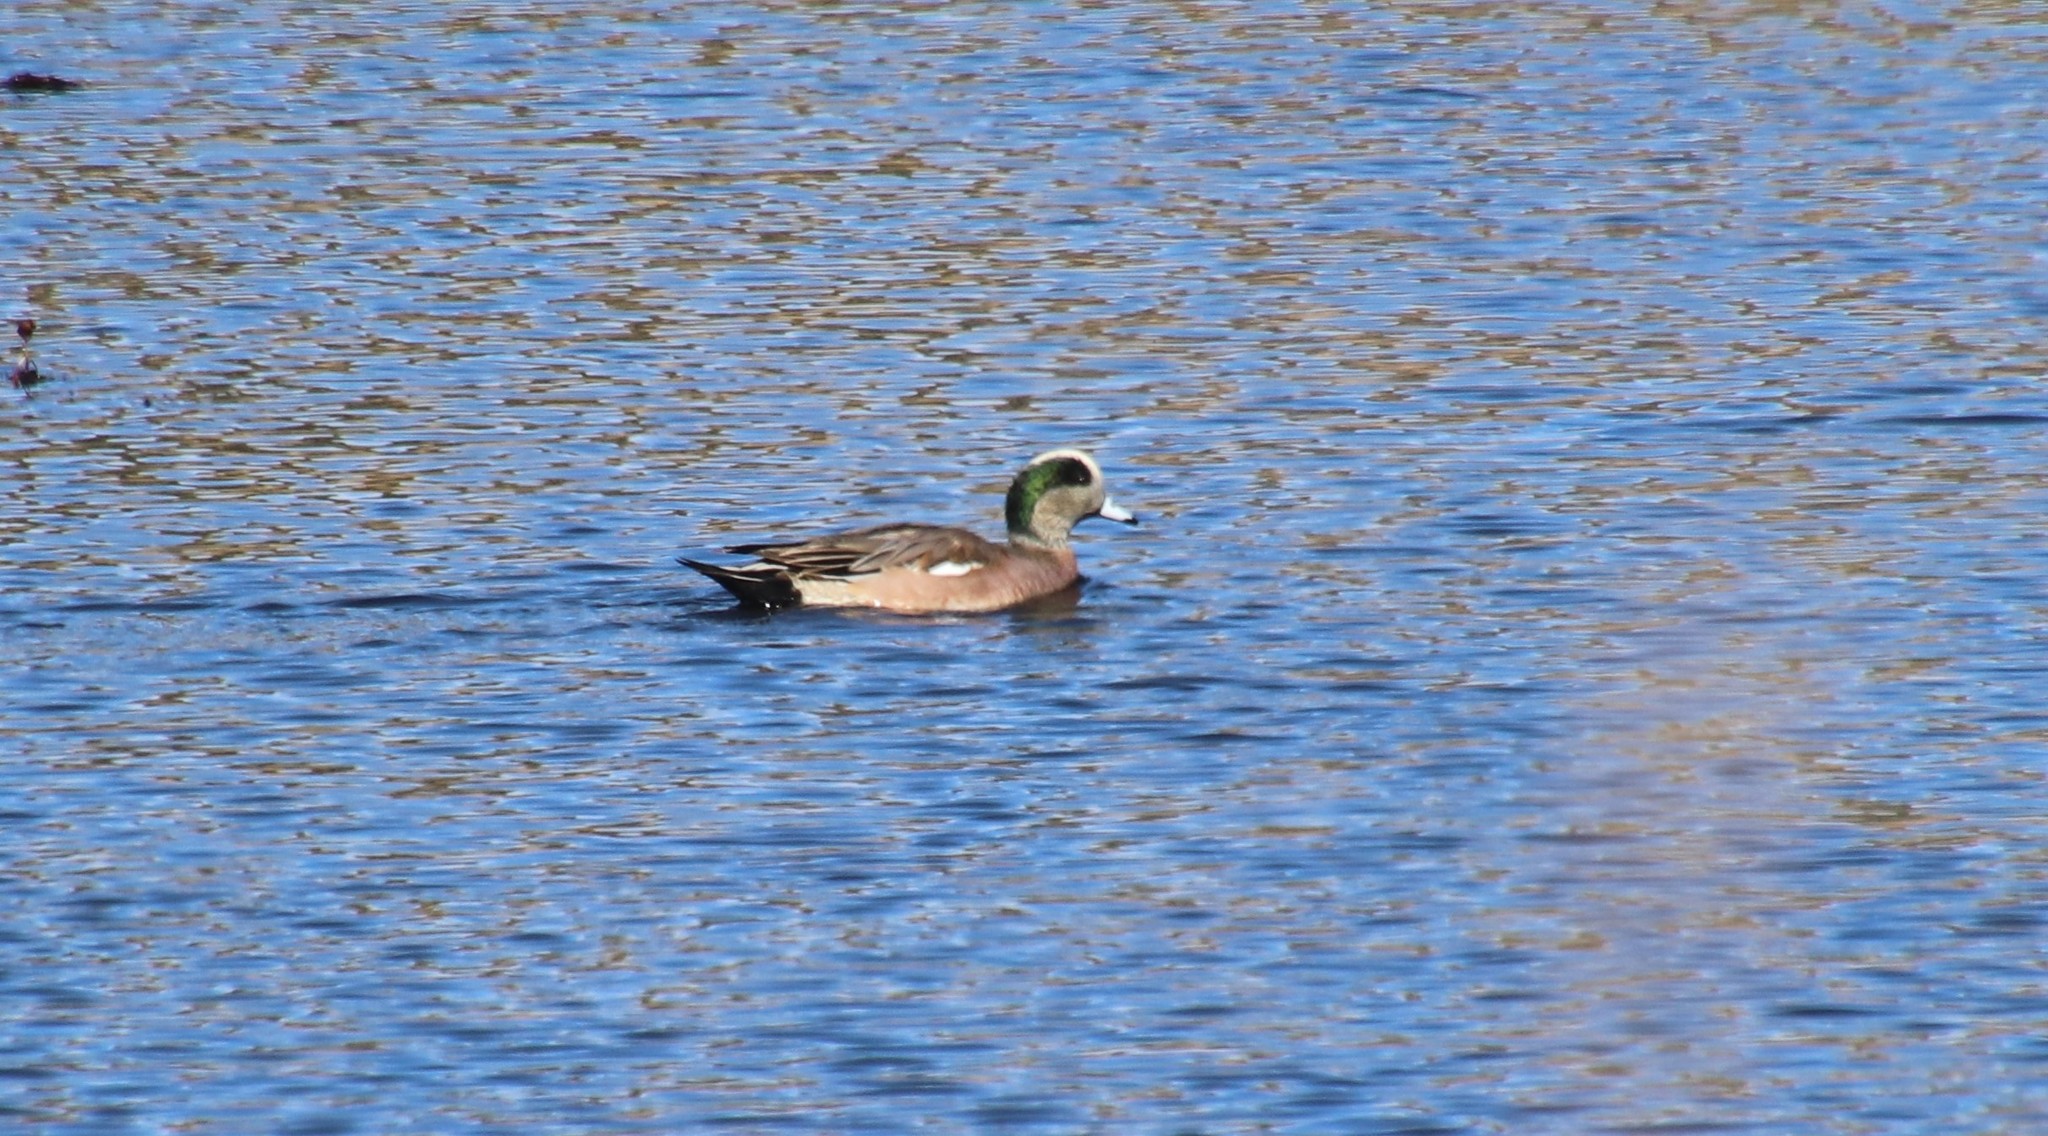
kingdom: Animalia
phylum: Chordata
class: Aves
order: Anseriformes
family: Anatidae
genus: Mareca
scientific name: Mareca americana
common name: American wigeon
